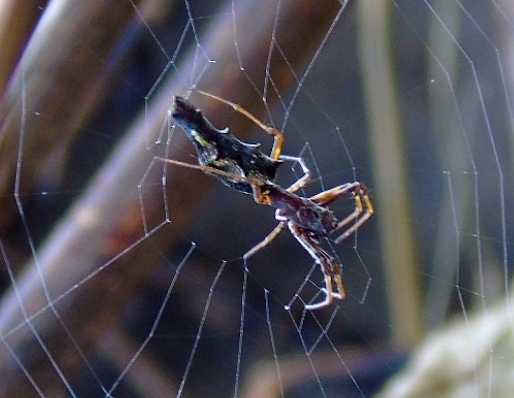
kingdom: Animalia
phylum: Arthropoda
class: Arachnida
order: Araneae
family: Araneidae
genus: Edricus
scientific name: Edricus productus
